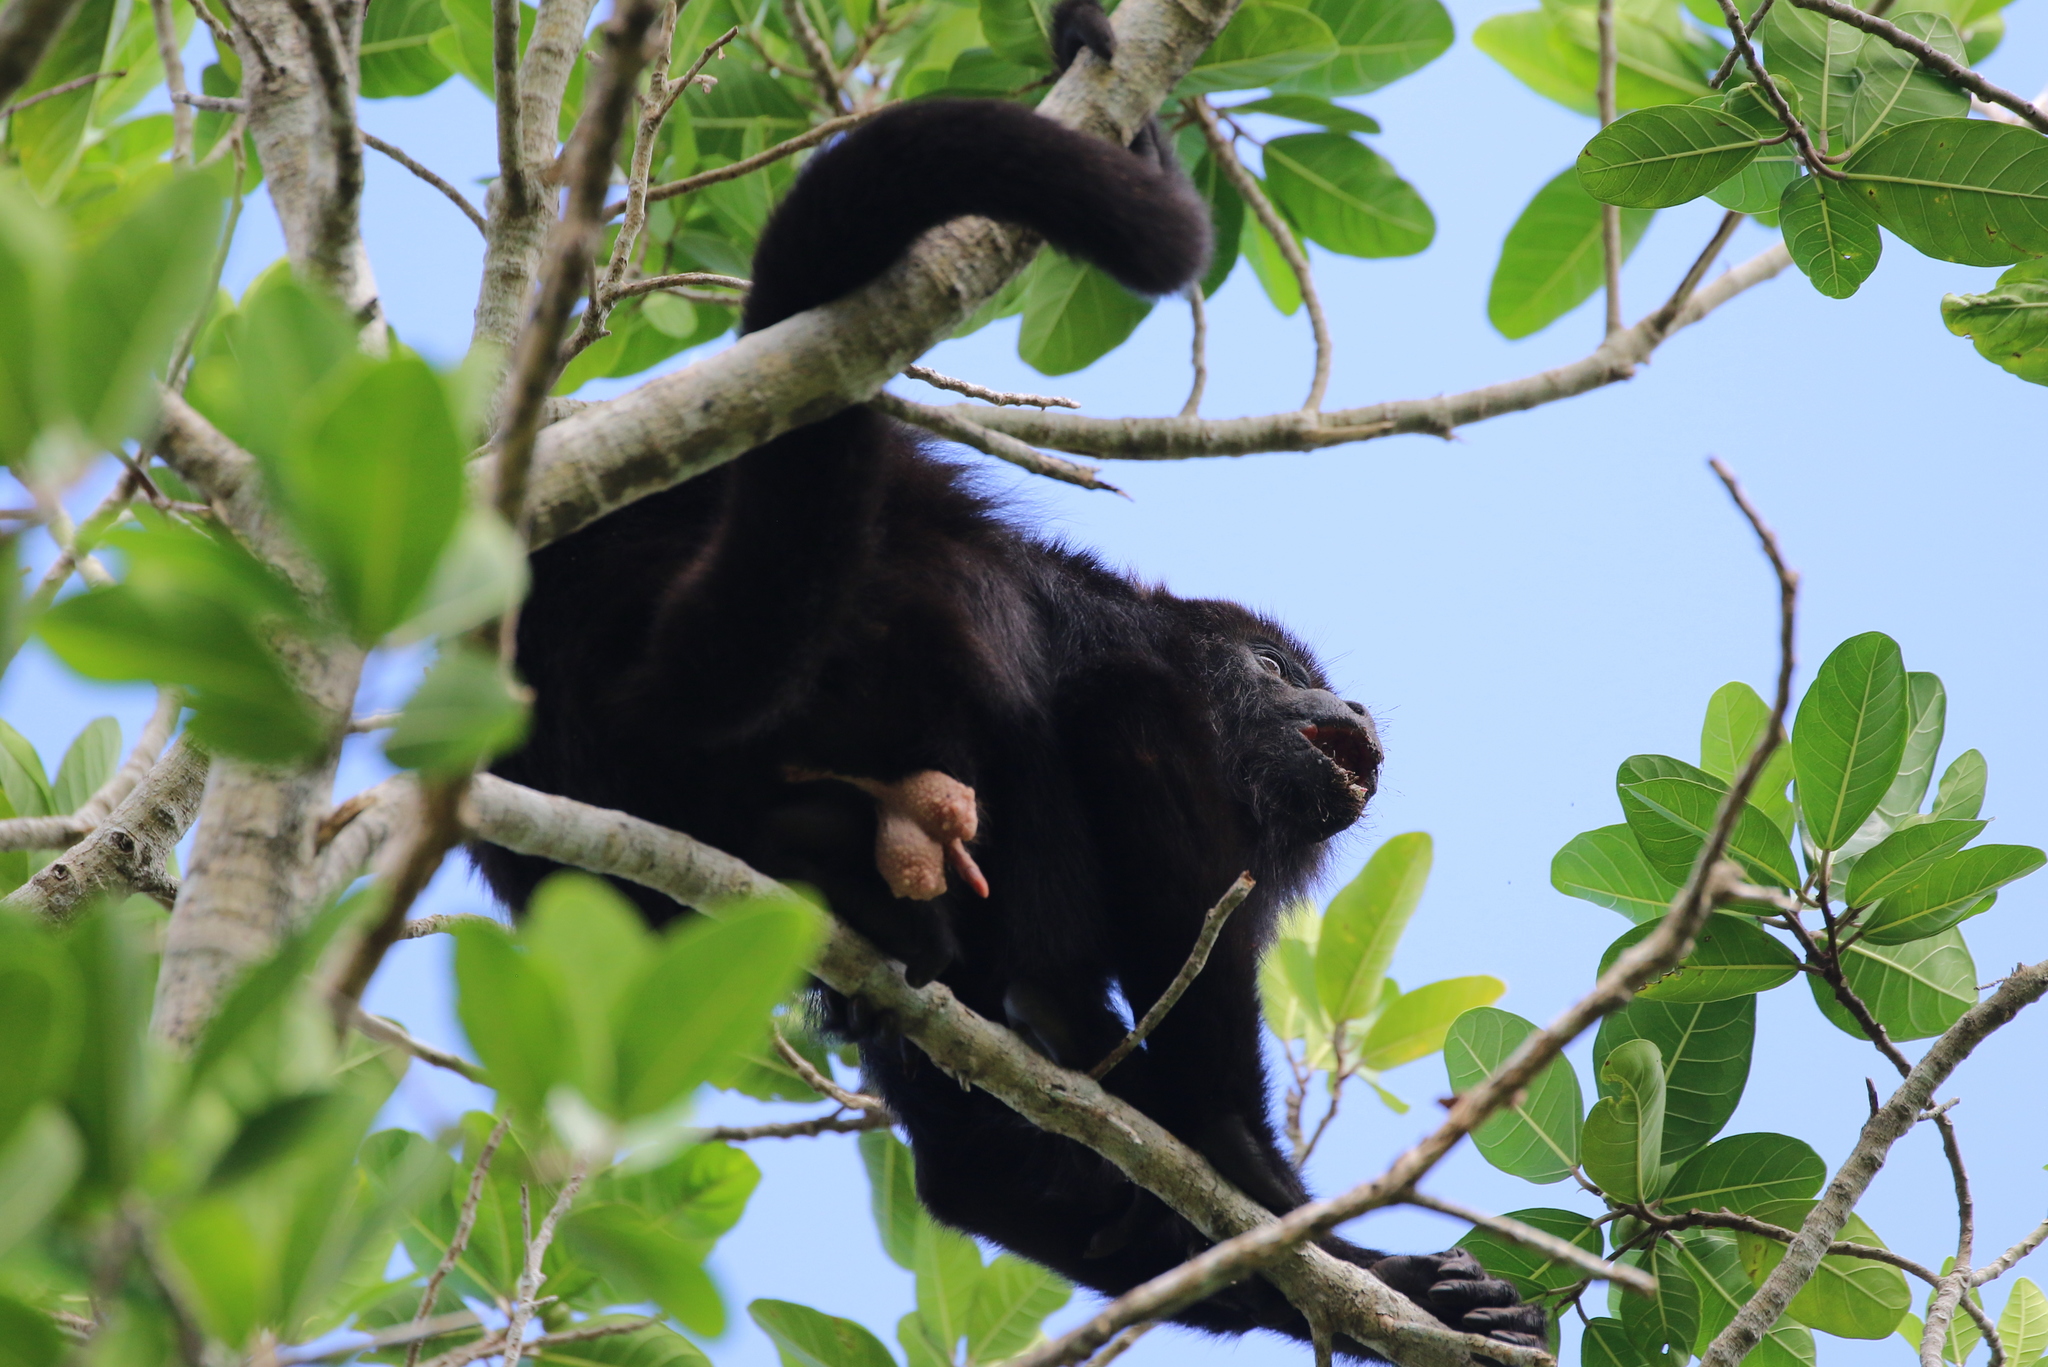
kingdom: Animalia
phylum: Chordata
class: Mammalia
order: Primates
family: Atelidae
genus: Alouatta
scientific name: Alouatta pigra
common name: Guatemalan black howler
